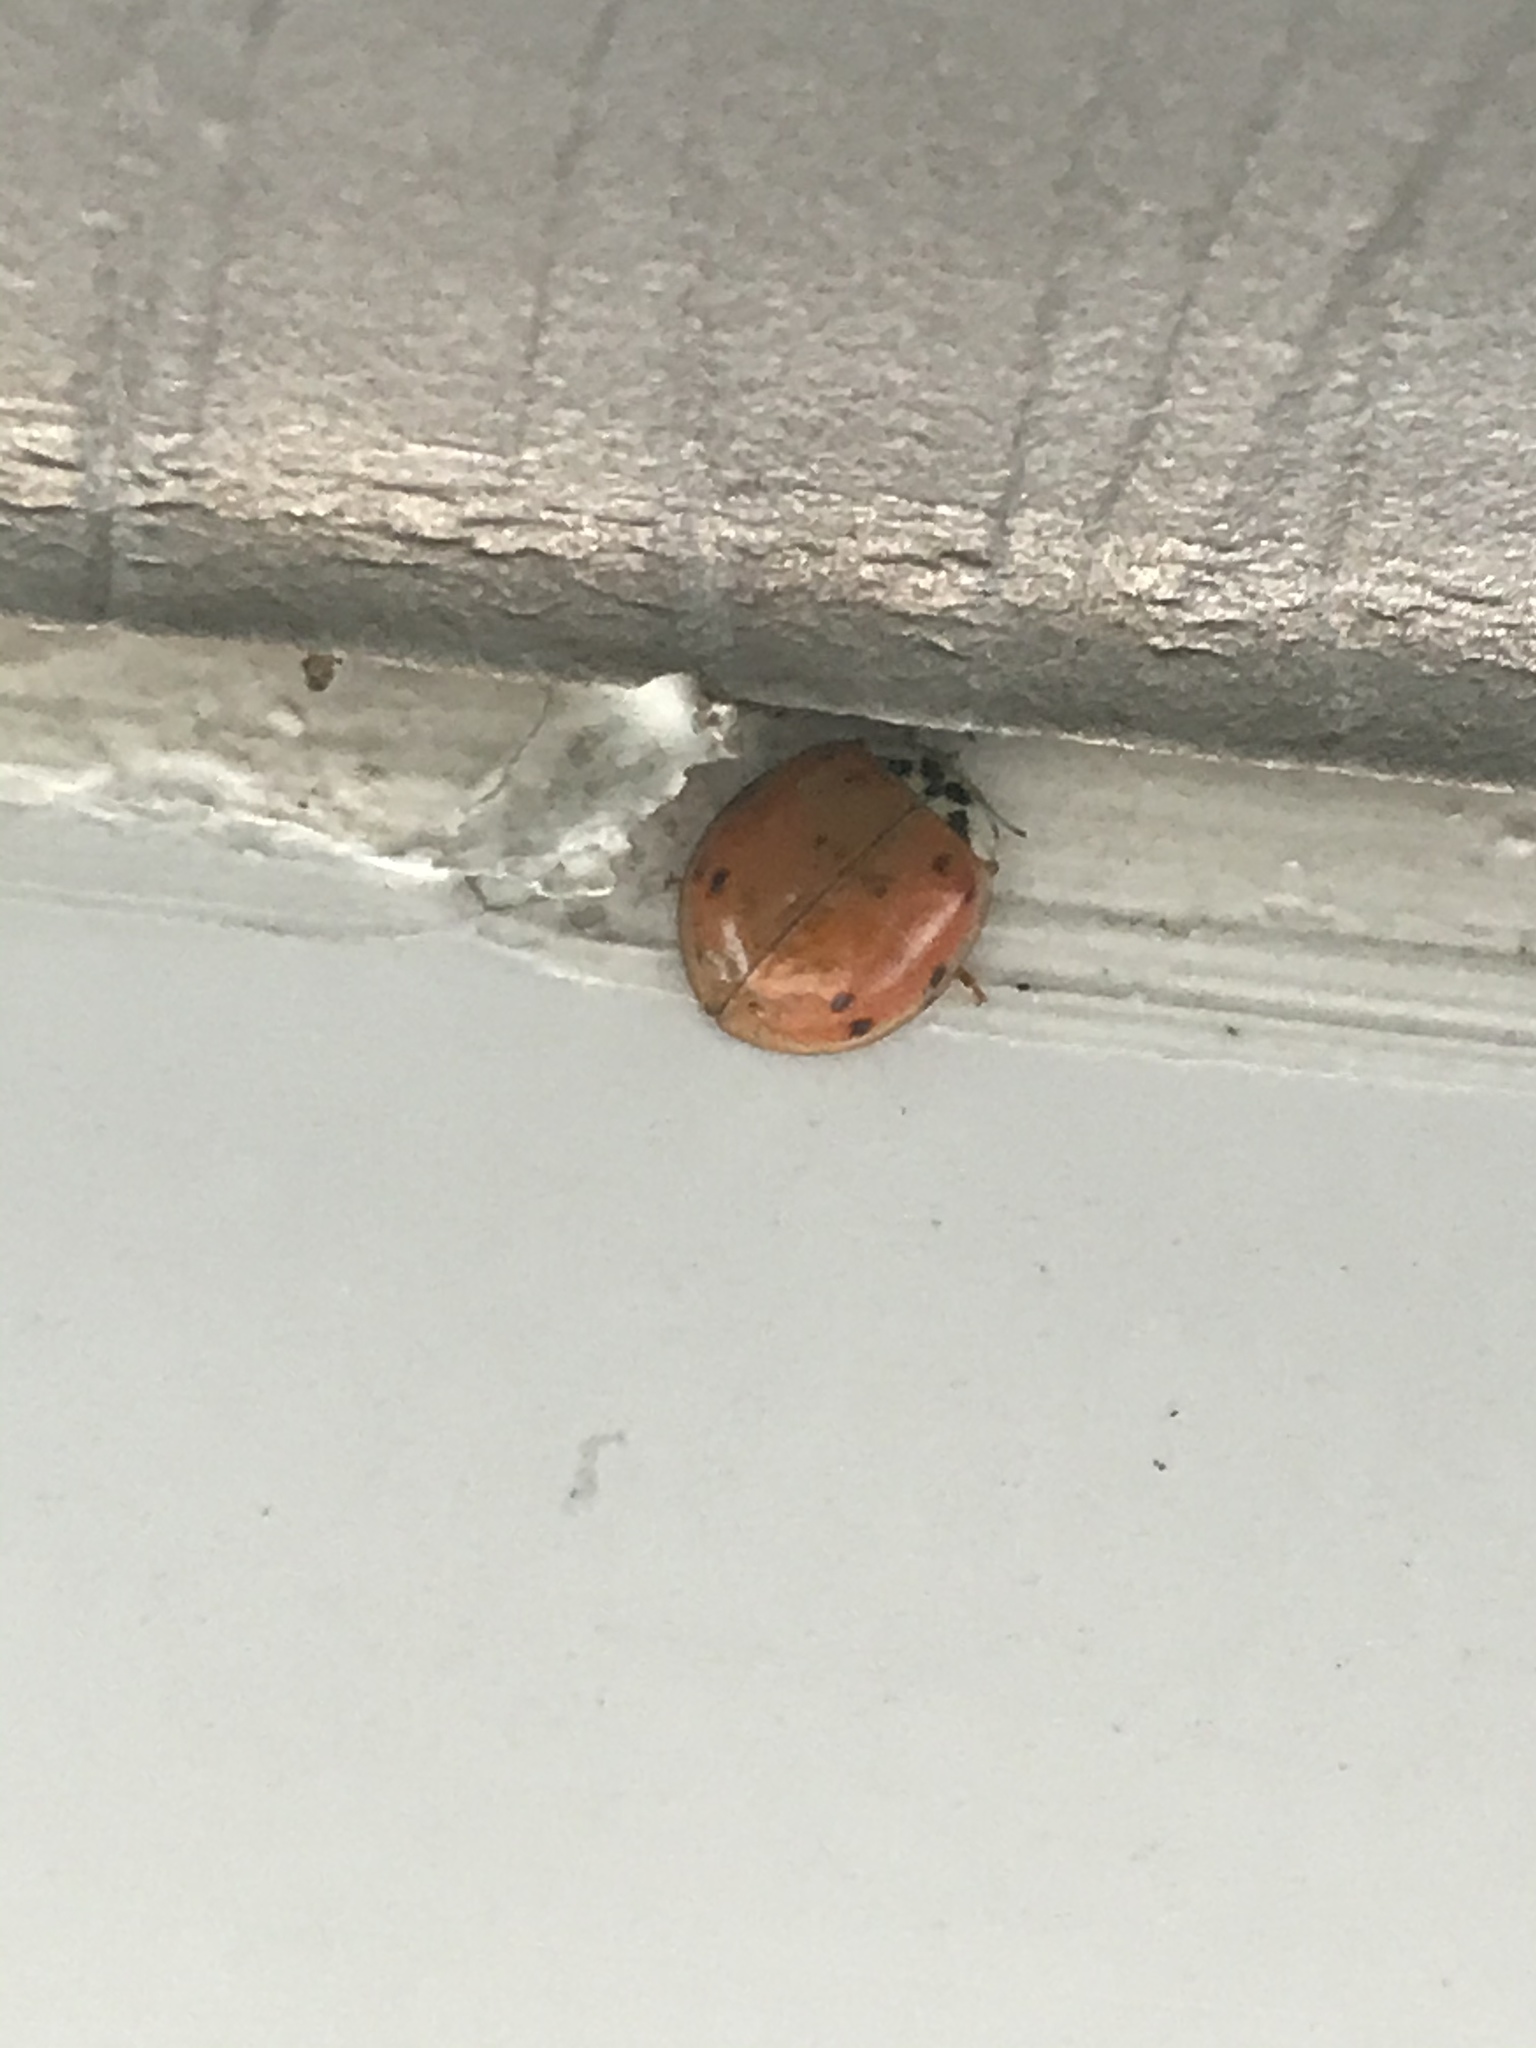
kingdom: Animalia
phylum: Arthropoda
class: Insecta
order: Coleoptera
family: Coccinellidae
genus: Harmonia
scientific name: Harmonia axyridis
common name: Harlequin ladybird
